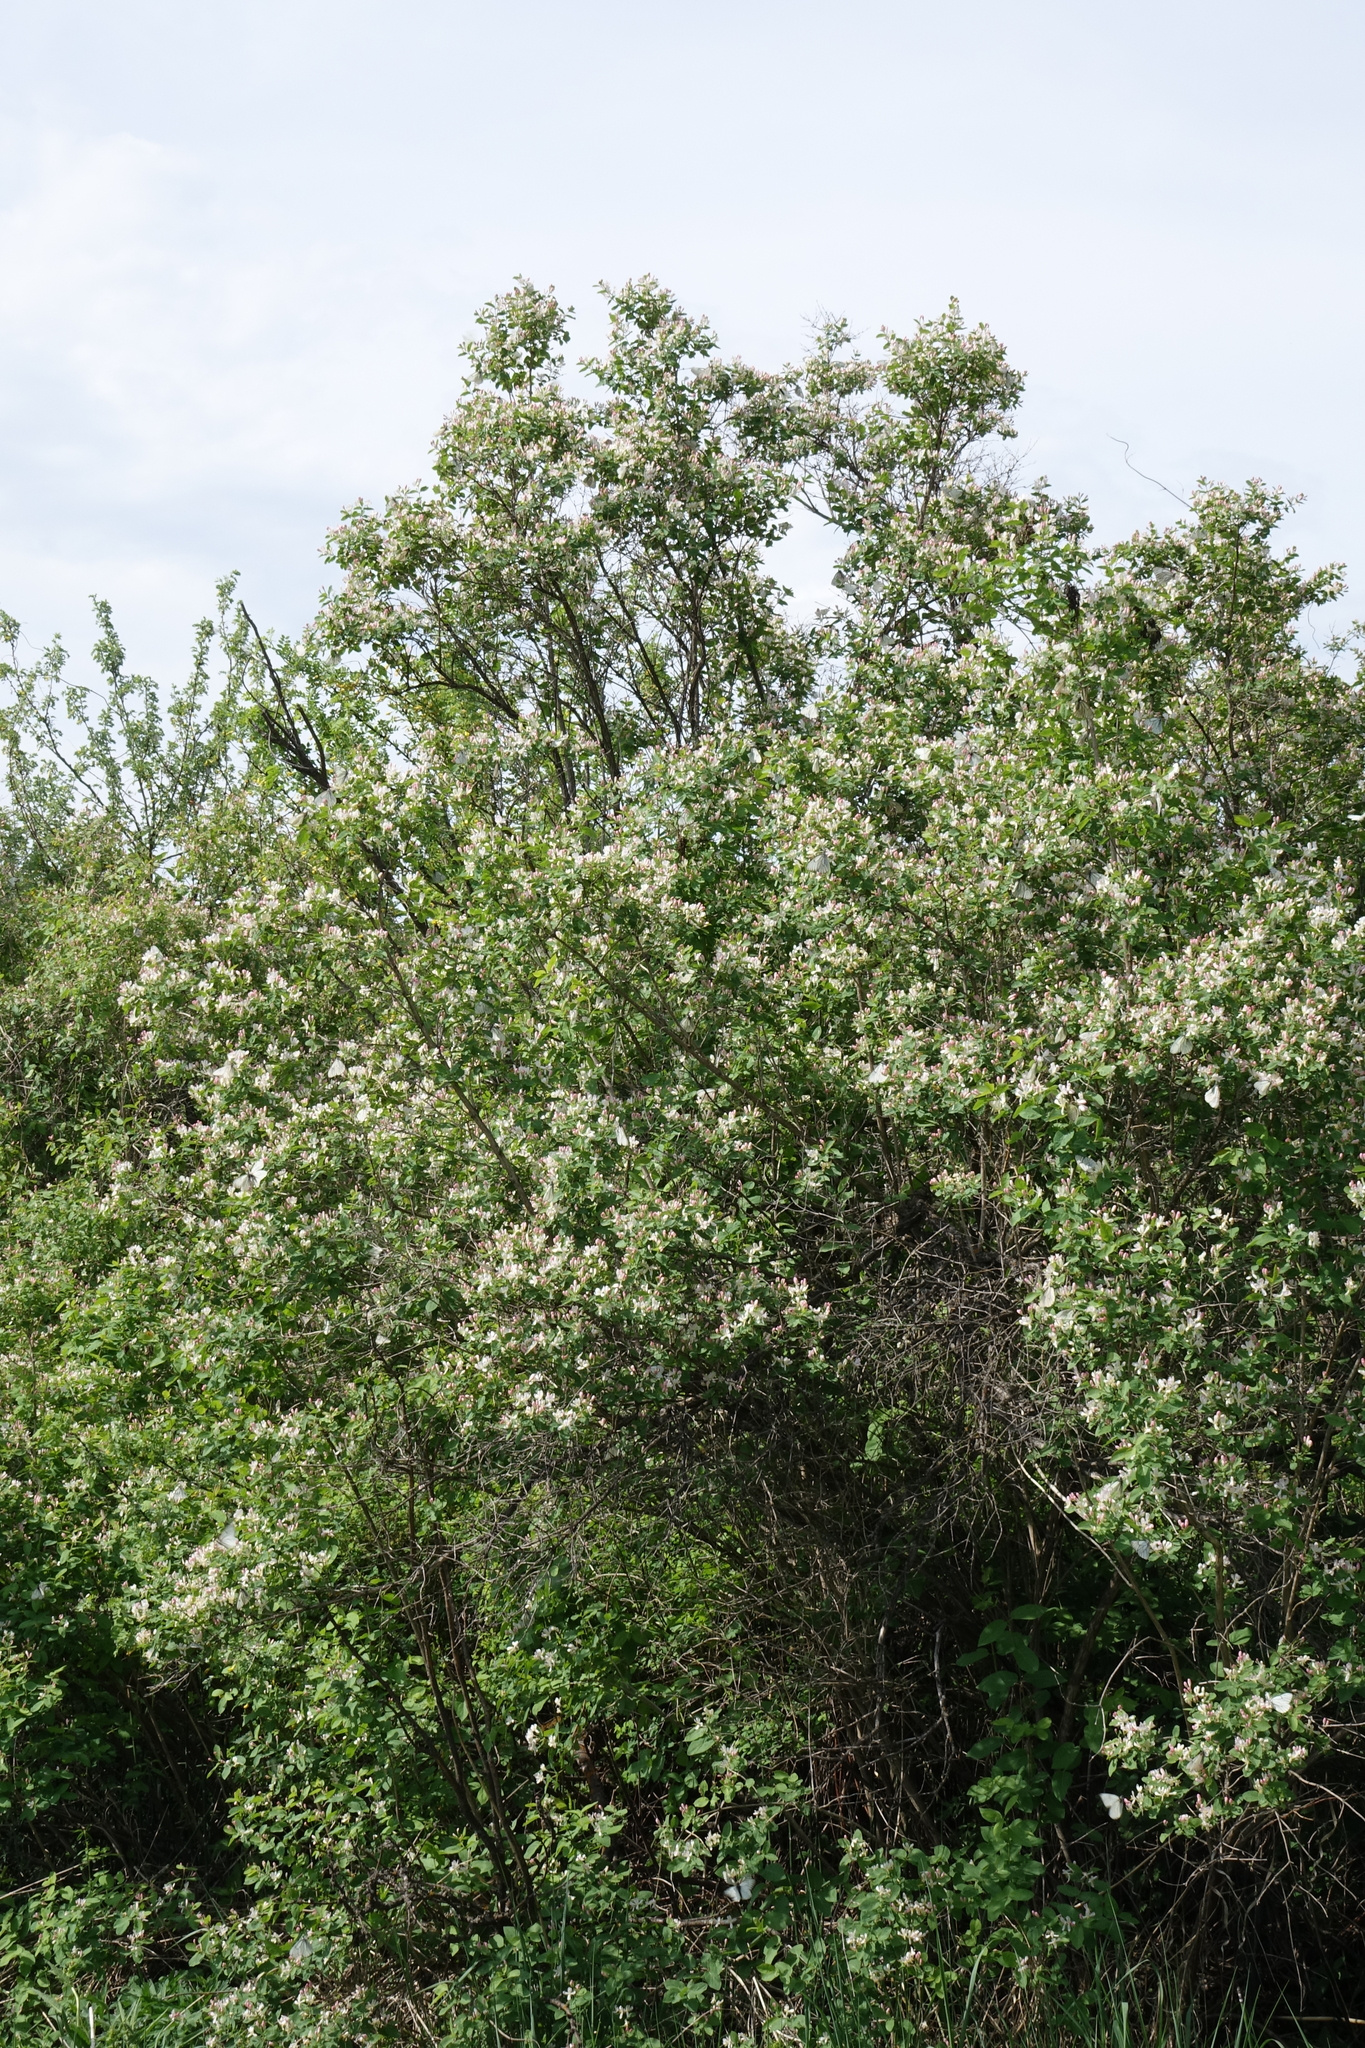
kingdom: Plantae
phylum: Tracheophyta
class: Magnoliopsida
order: Dipsacales
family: Caprifoliaceae
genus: Lonicera
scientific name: Lonicera tatarica
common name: Tatarian honeysuckle
